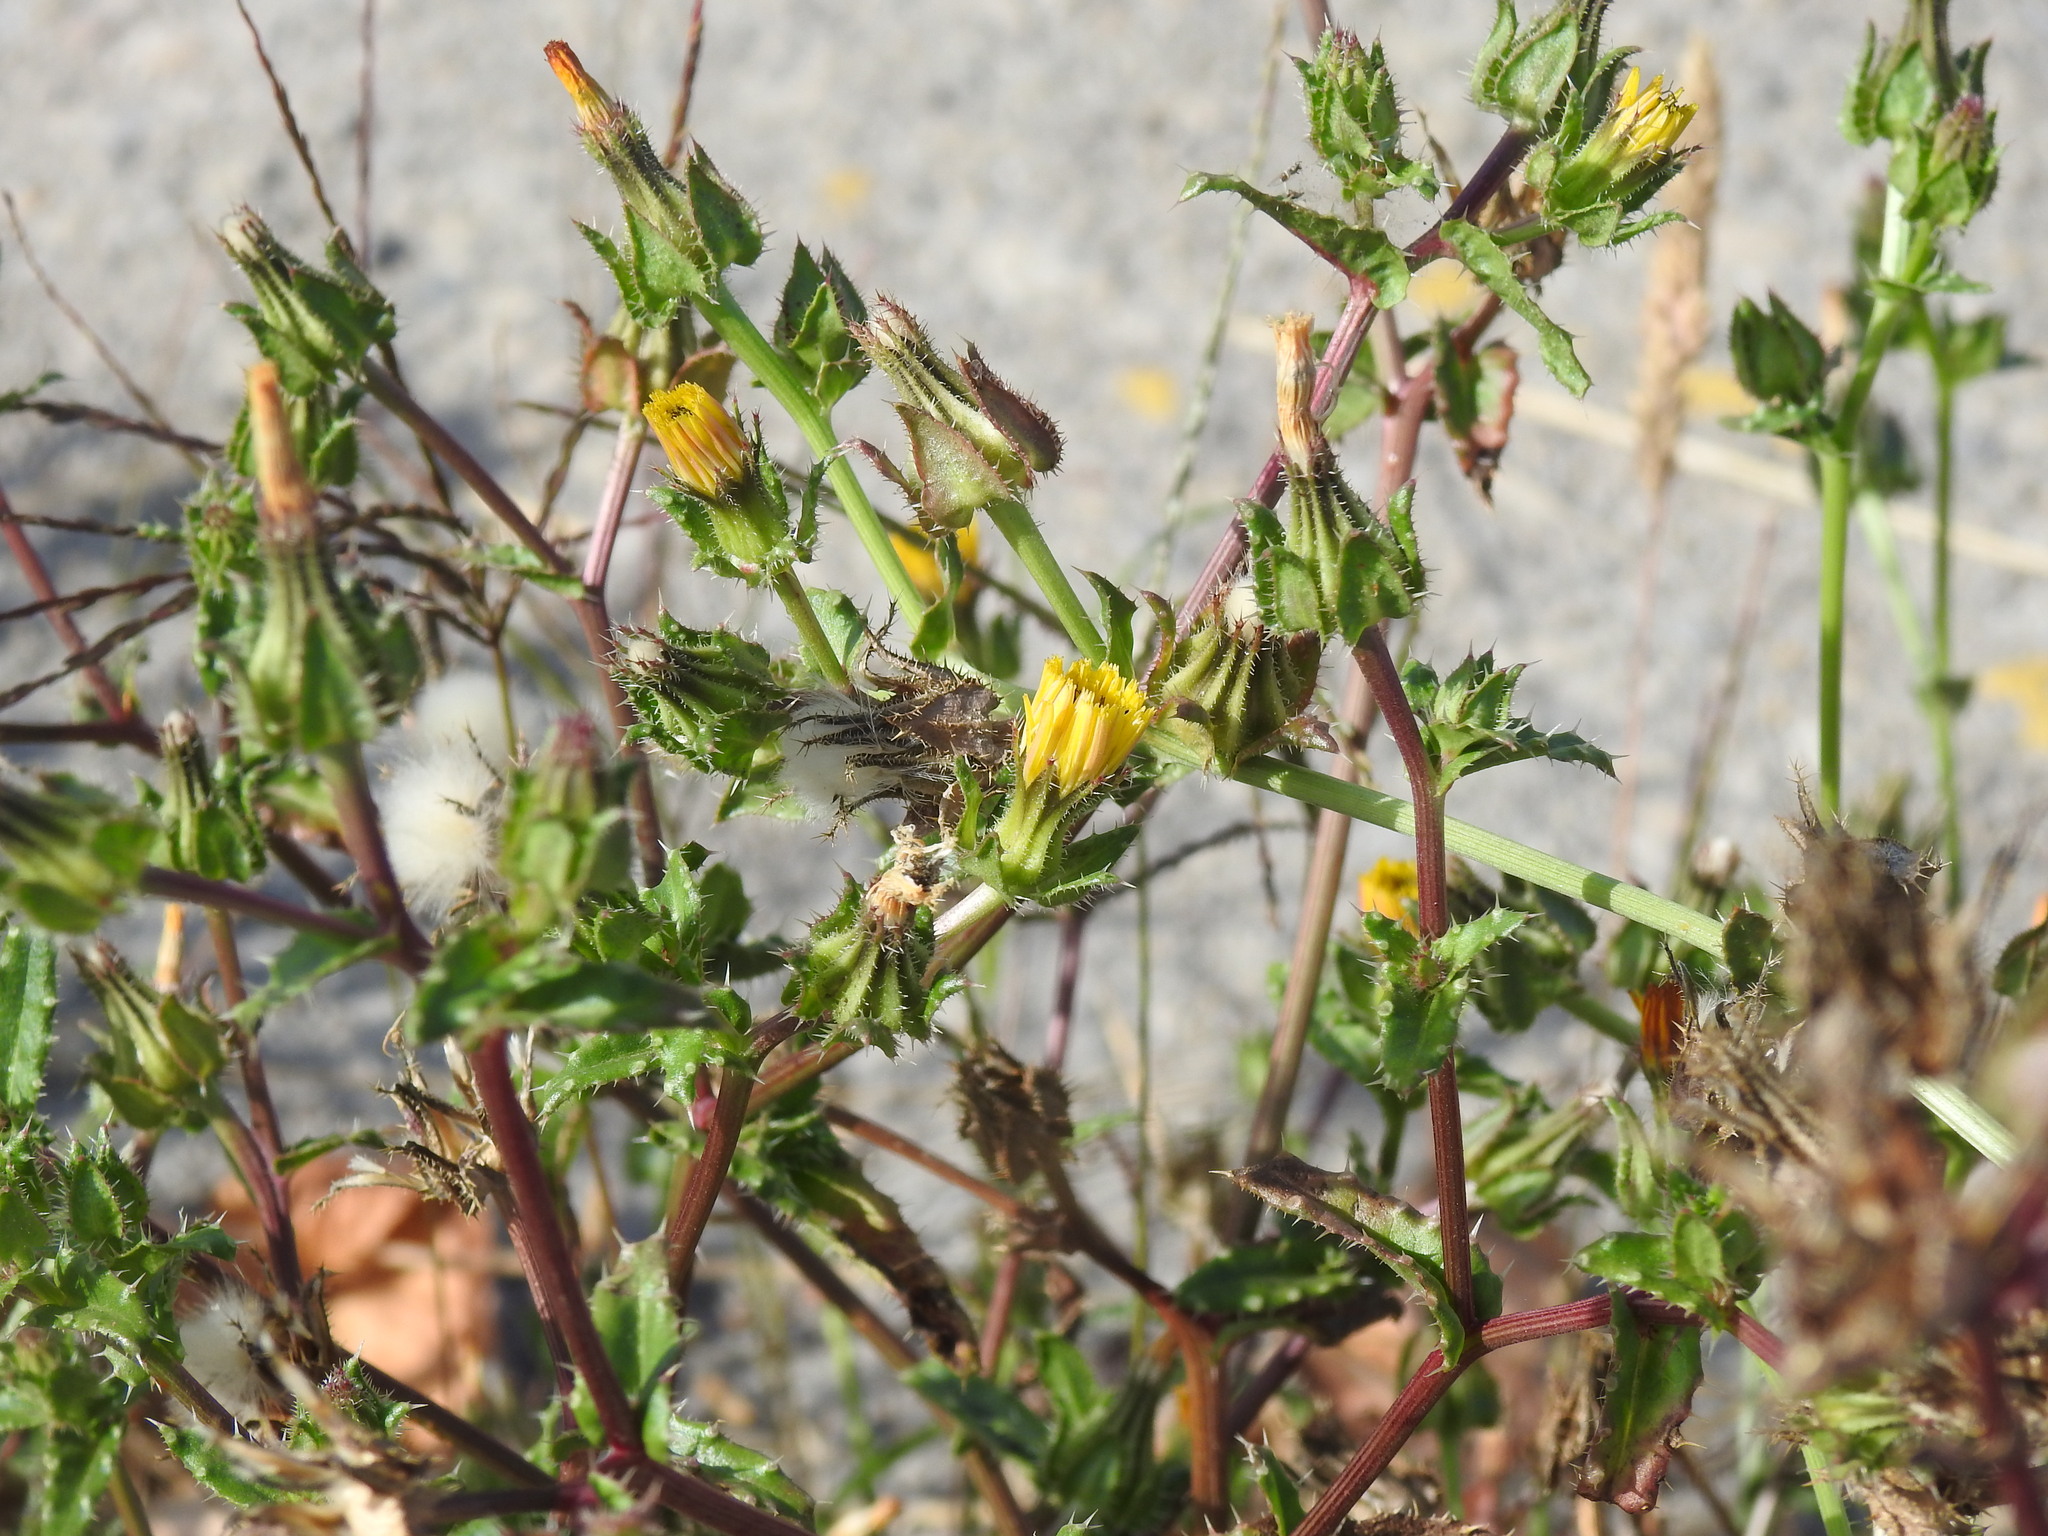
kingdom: Plantae
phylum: Tracheophyta
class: Magnoliopsida
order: Asterales
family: Asteraceae
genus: Helminthotheca
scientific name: Helminthotheca echioides
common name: Ox-tongue
